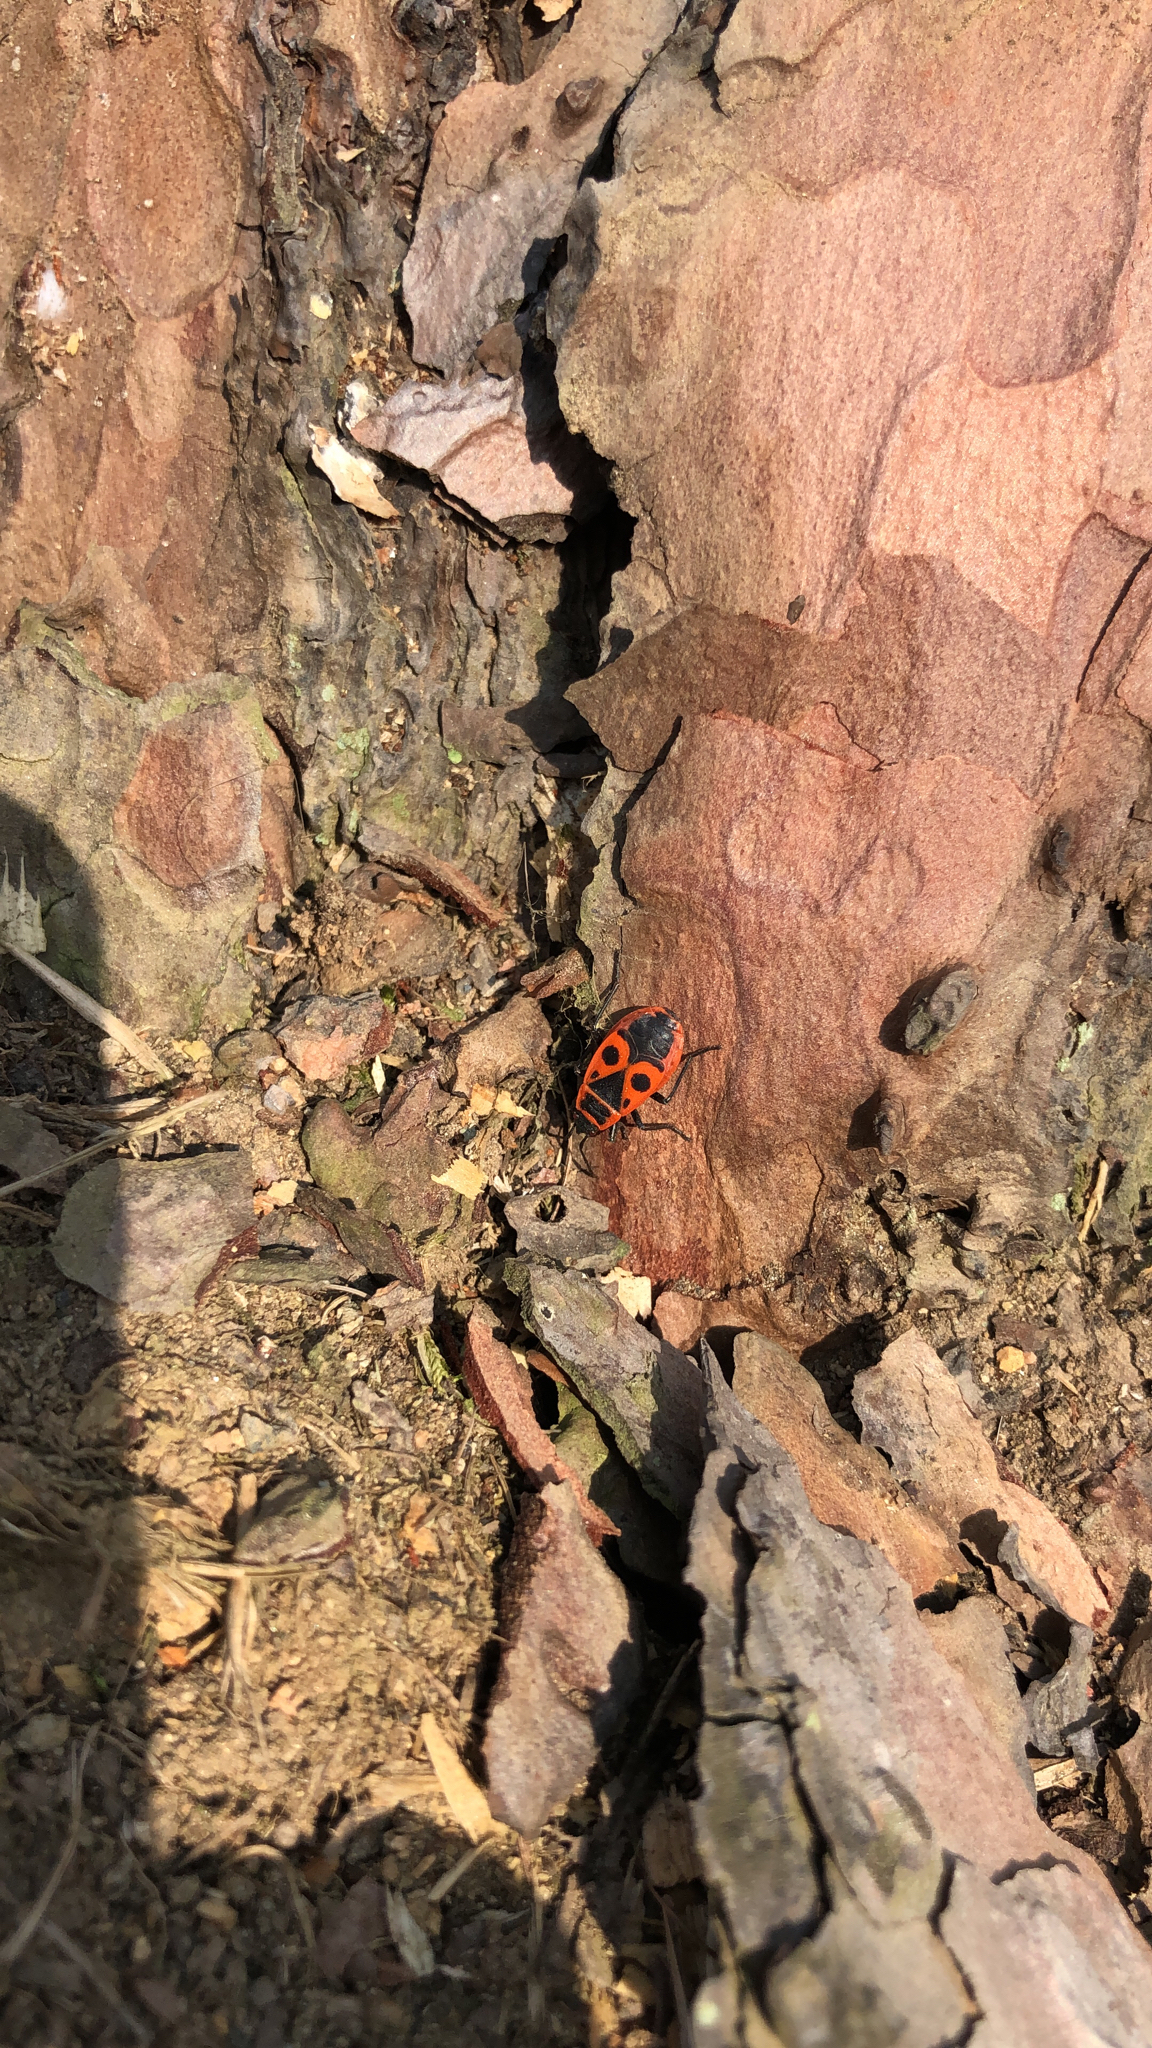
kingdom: Animalia
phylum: Arthropoda
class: Insecta
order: Hemiptera
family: Pyrrhocoridae
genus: Pyrrhocoris
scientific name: Pyrrhocoris apterus
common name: Firebug
